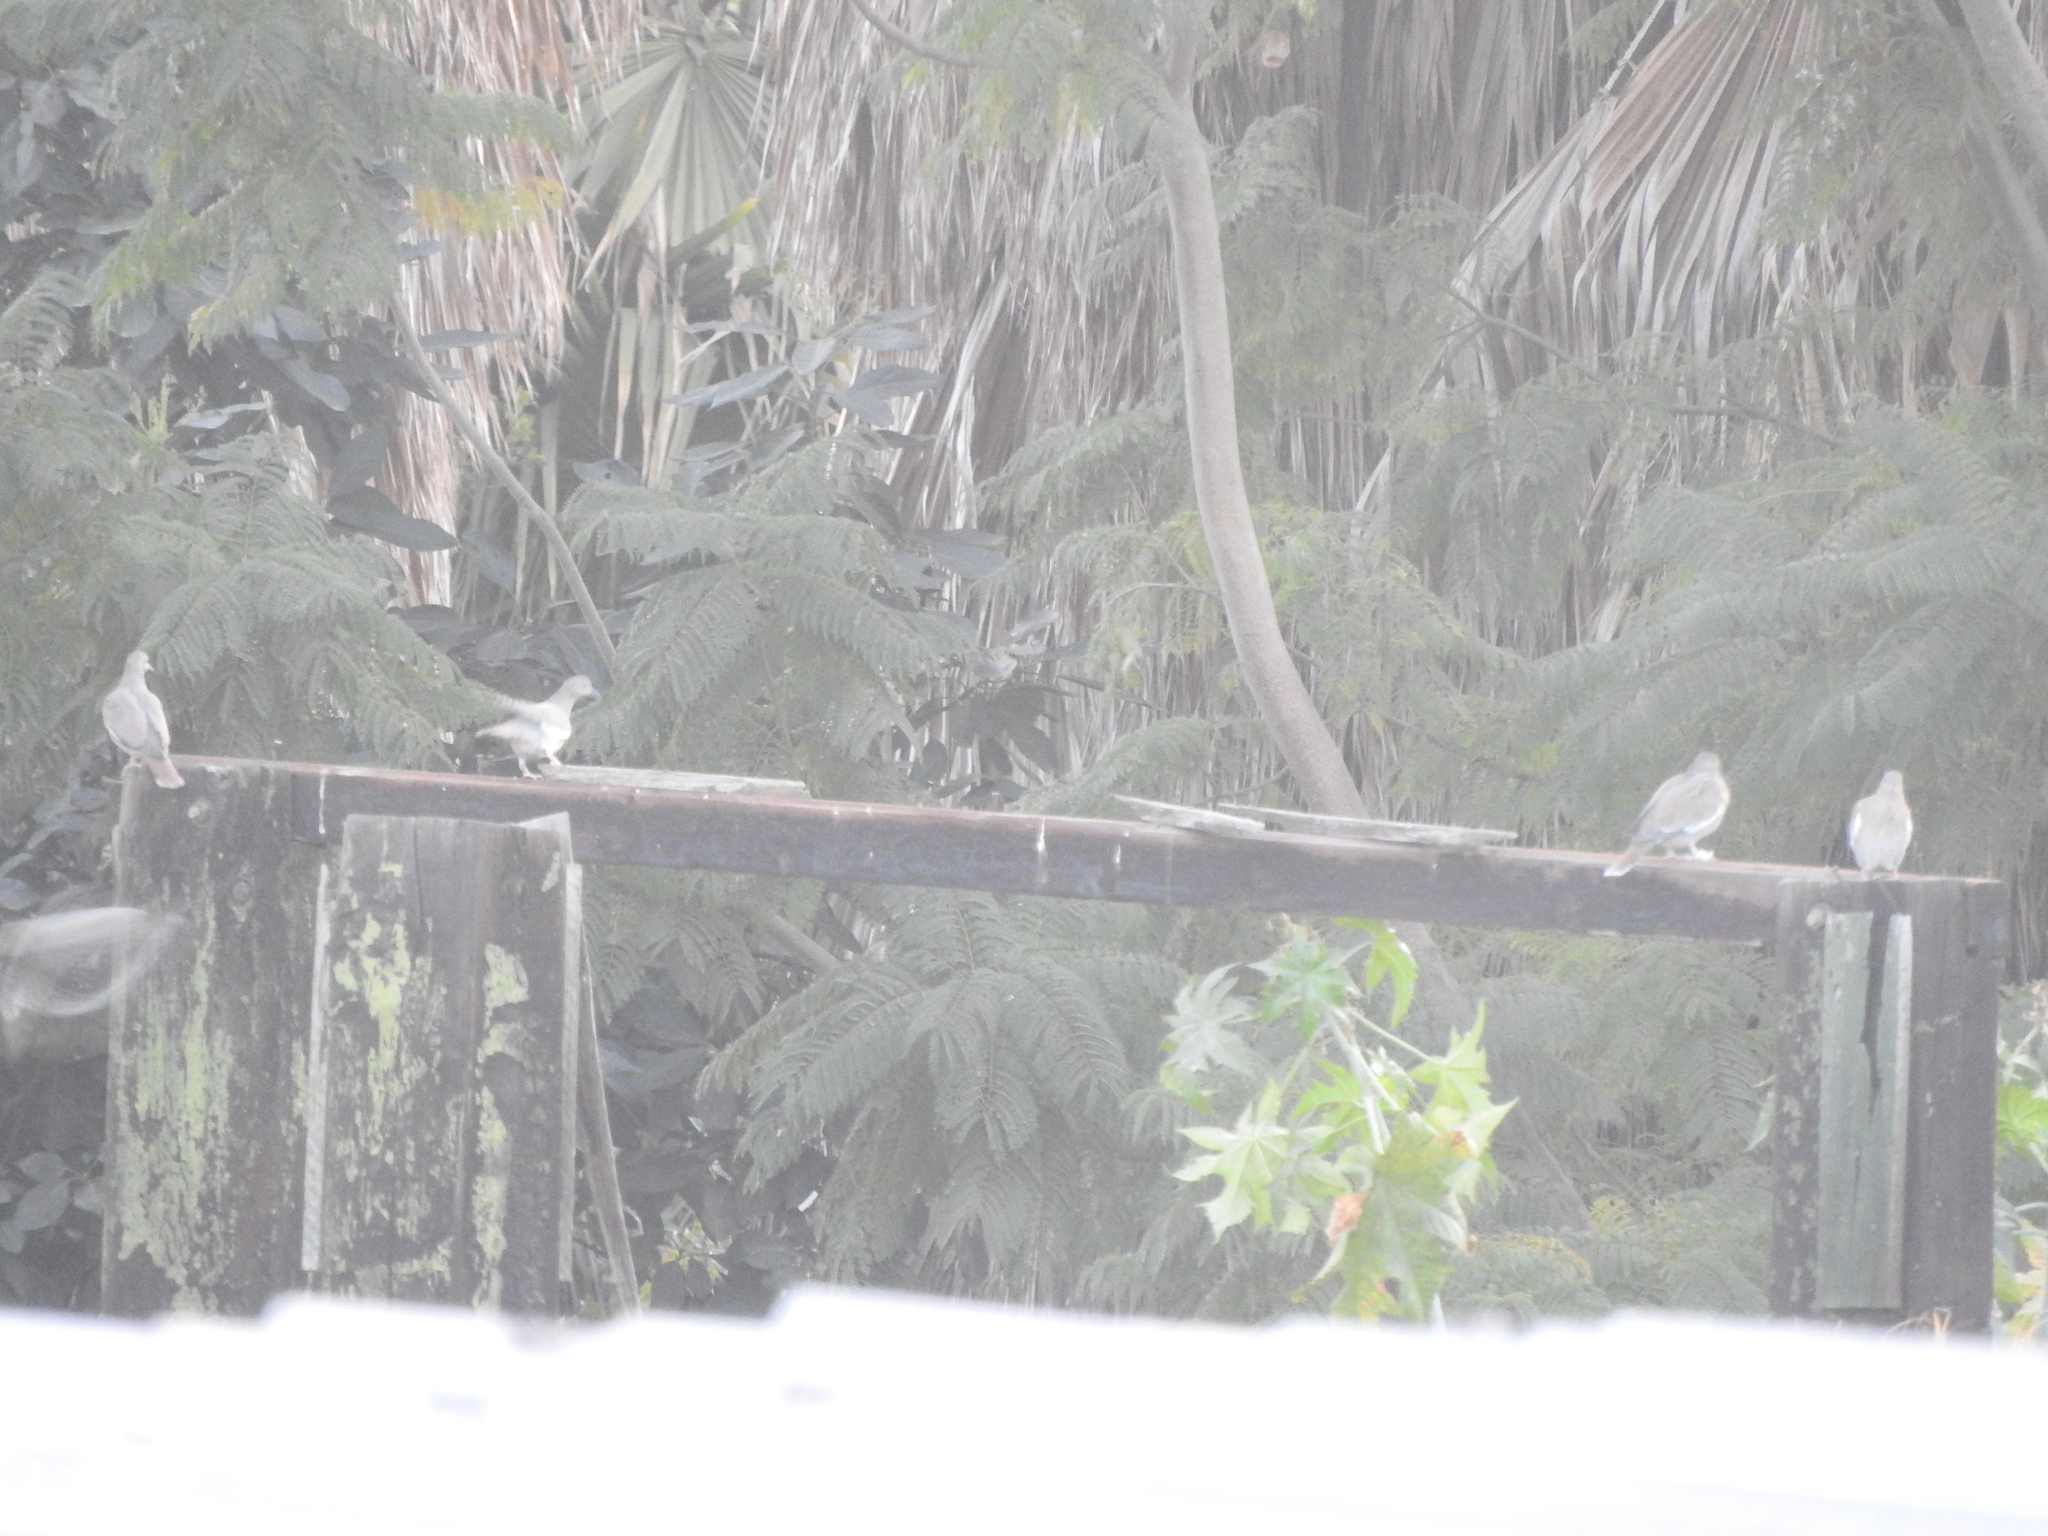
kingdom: Animalia
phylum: Chordata
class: Aves
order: Columbiformes
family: Columbidae
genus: Zenaida
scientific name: Zenaida asiatica
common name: White-winged dove
